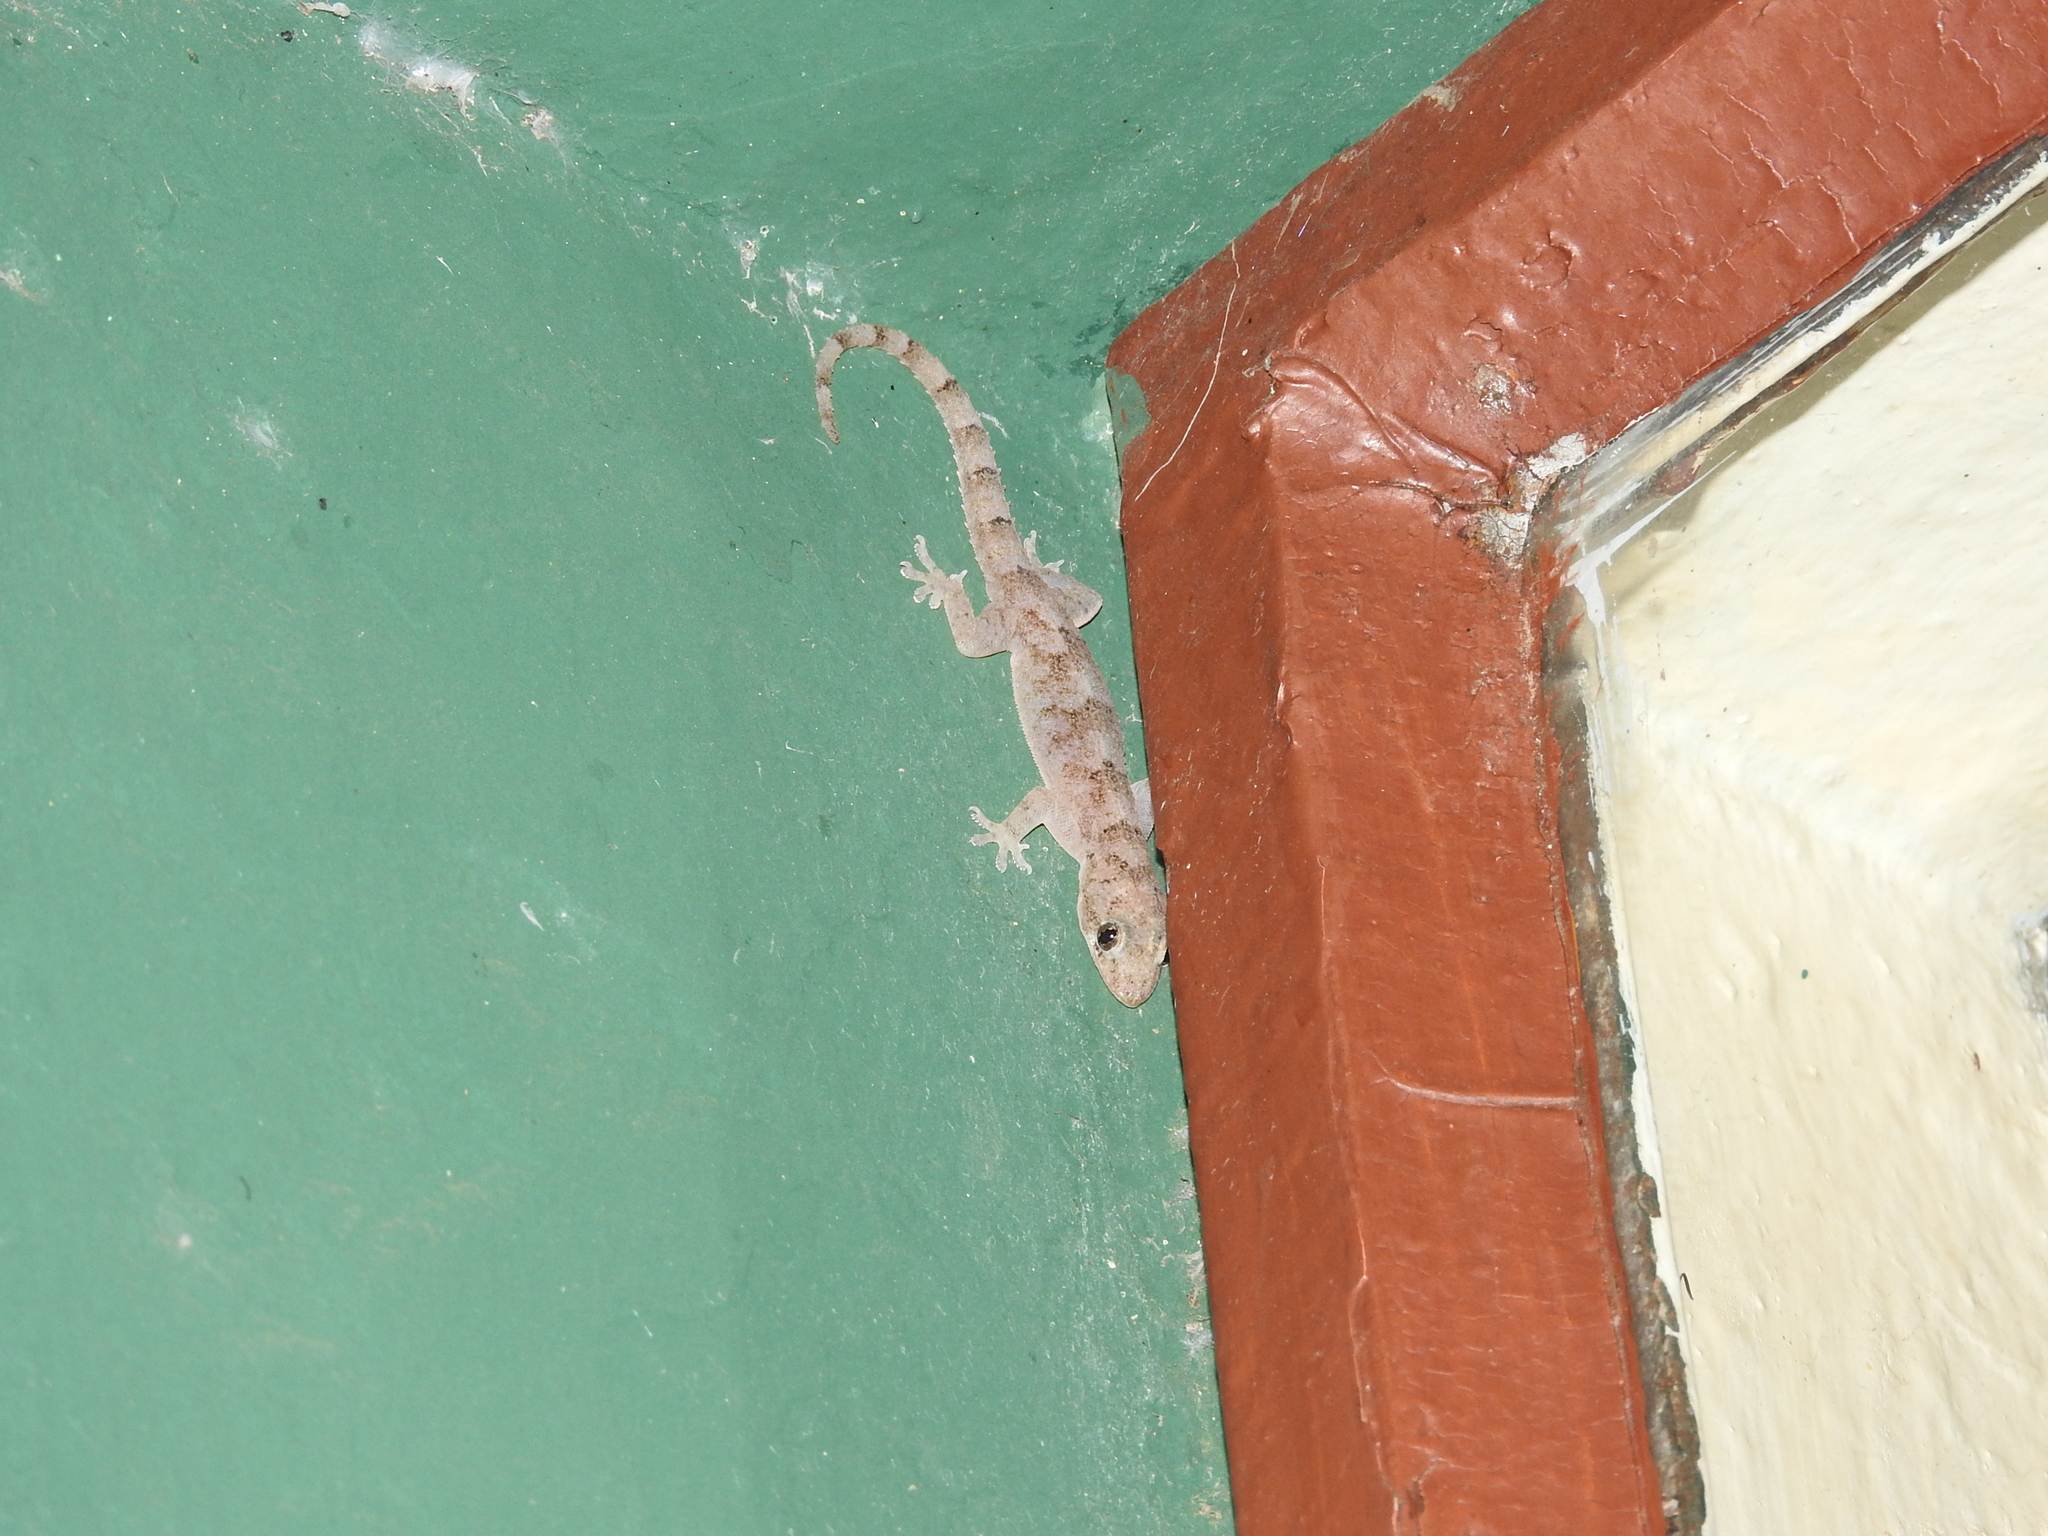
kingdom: Animalia
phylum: Chordata
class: Squamata
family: Gekkonidae
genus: Hemidactylus
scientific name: Hemidactylus mabouia
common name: House gecko
